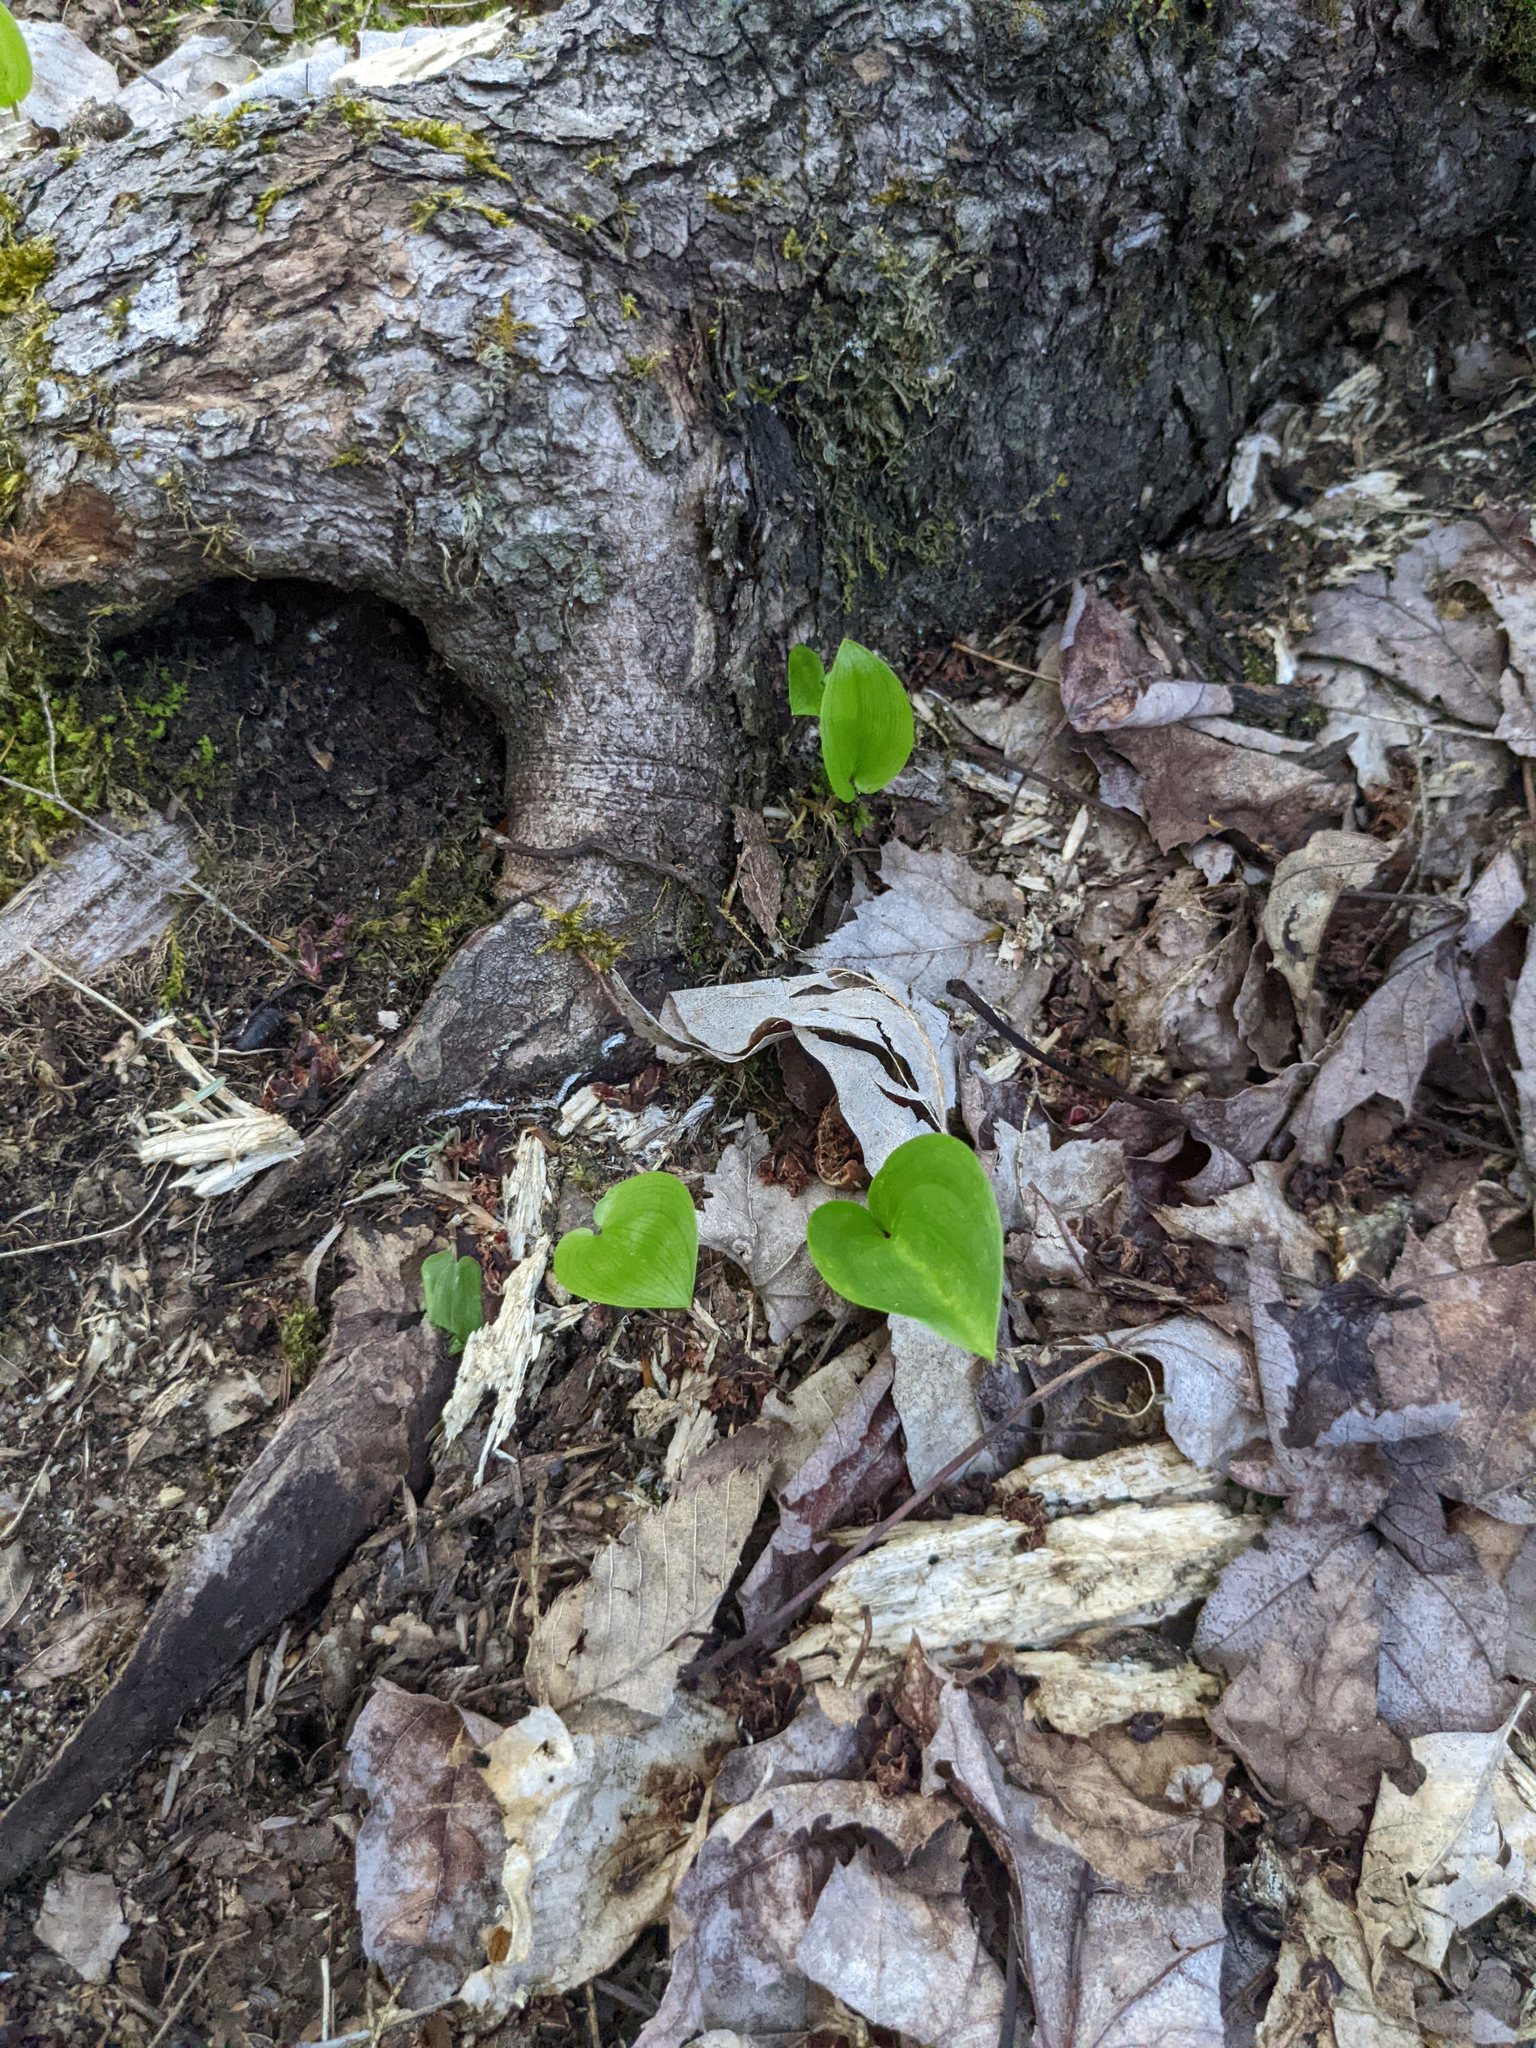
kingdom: Plantae
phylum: Tracheophyta
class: Liliopsida
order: Asparagales
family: Asparagaceae
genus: Maianthemum
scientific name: Maianthemum canadense
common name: False lily-of-the-valley
